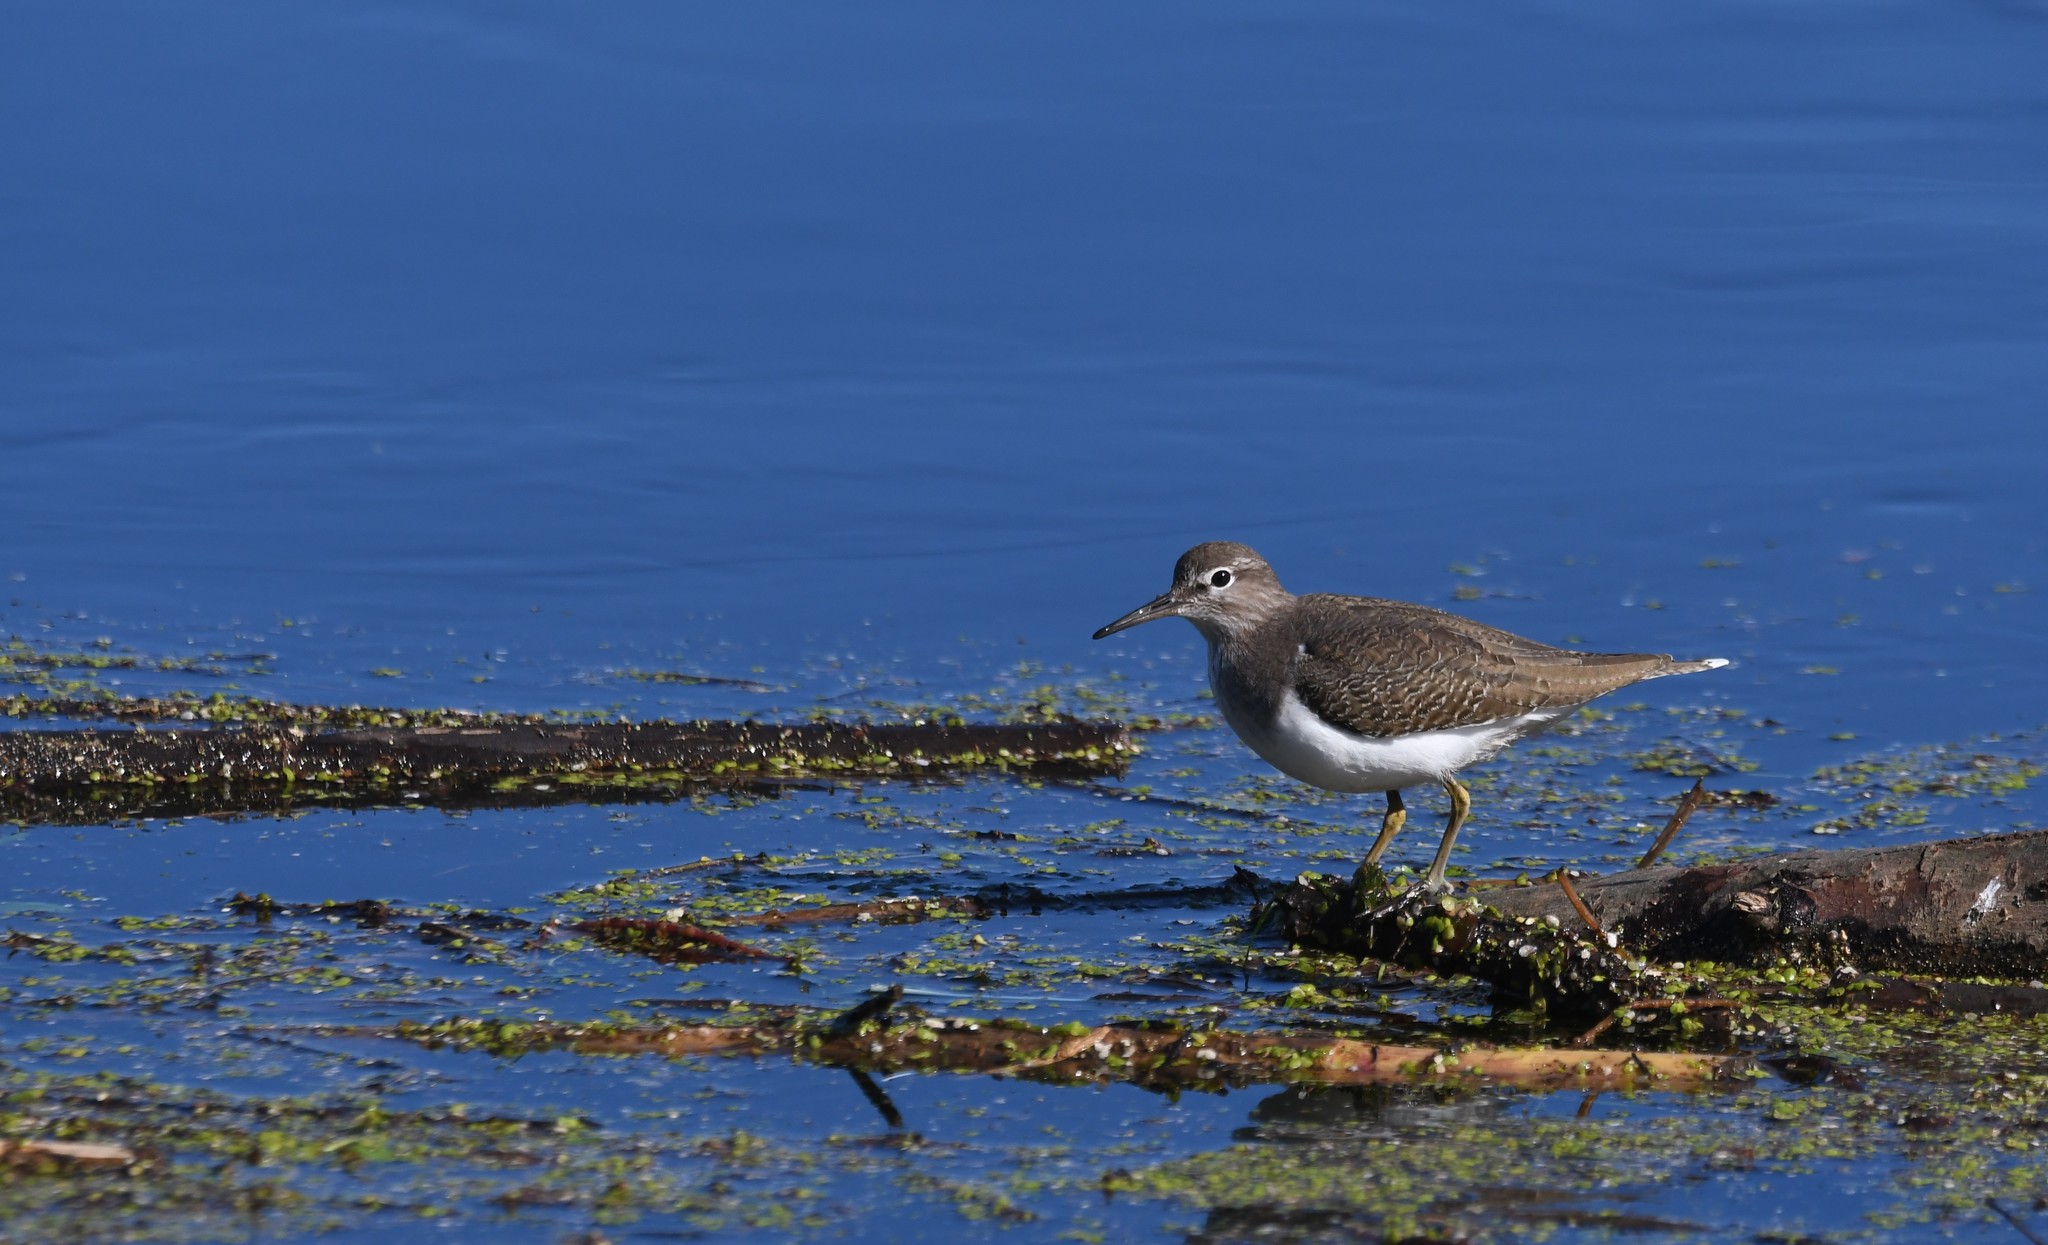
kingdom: Animalia
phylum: Chordata
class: Aves
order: Charadriiformes
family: Scolopacidae
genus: Actitis
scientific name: Actitis hypoleucos
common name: Common sandpiper
